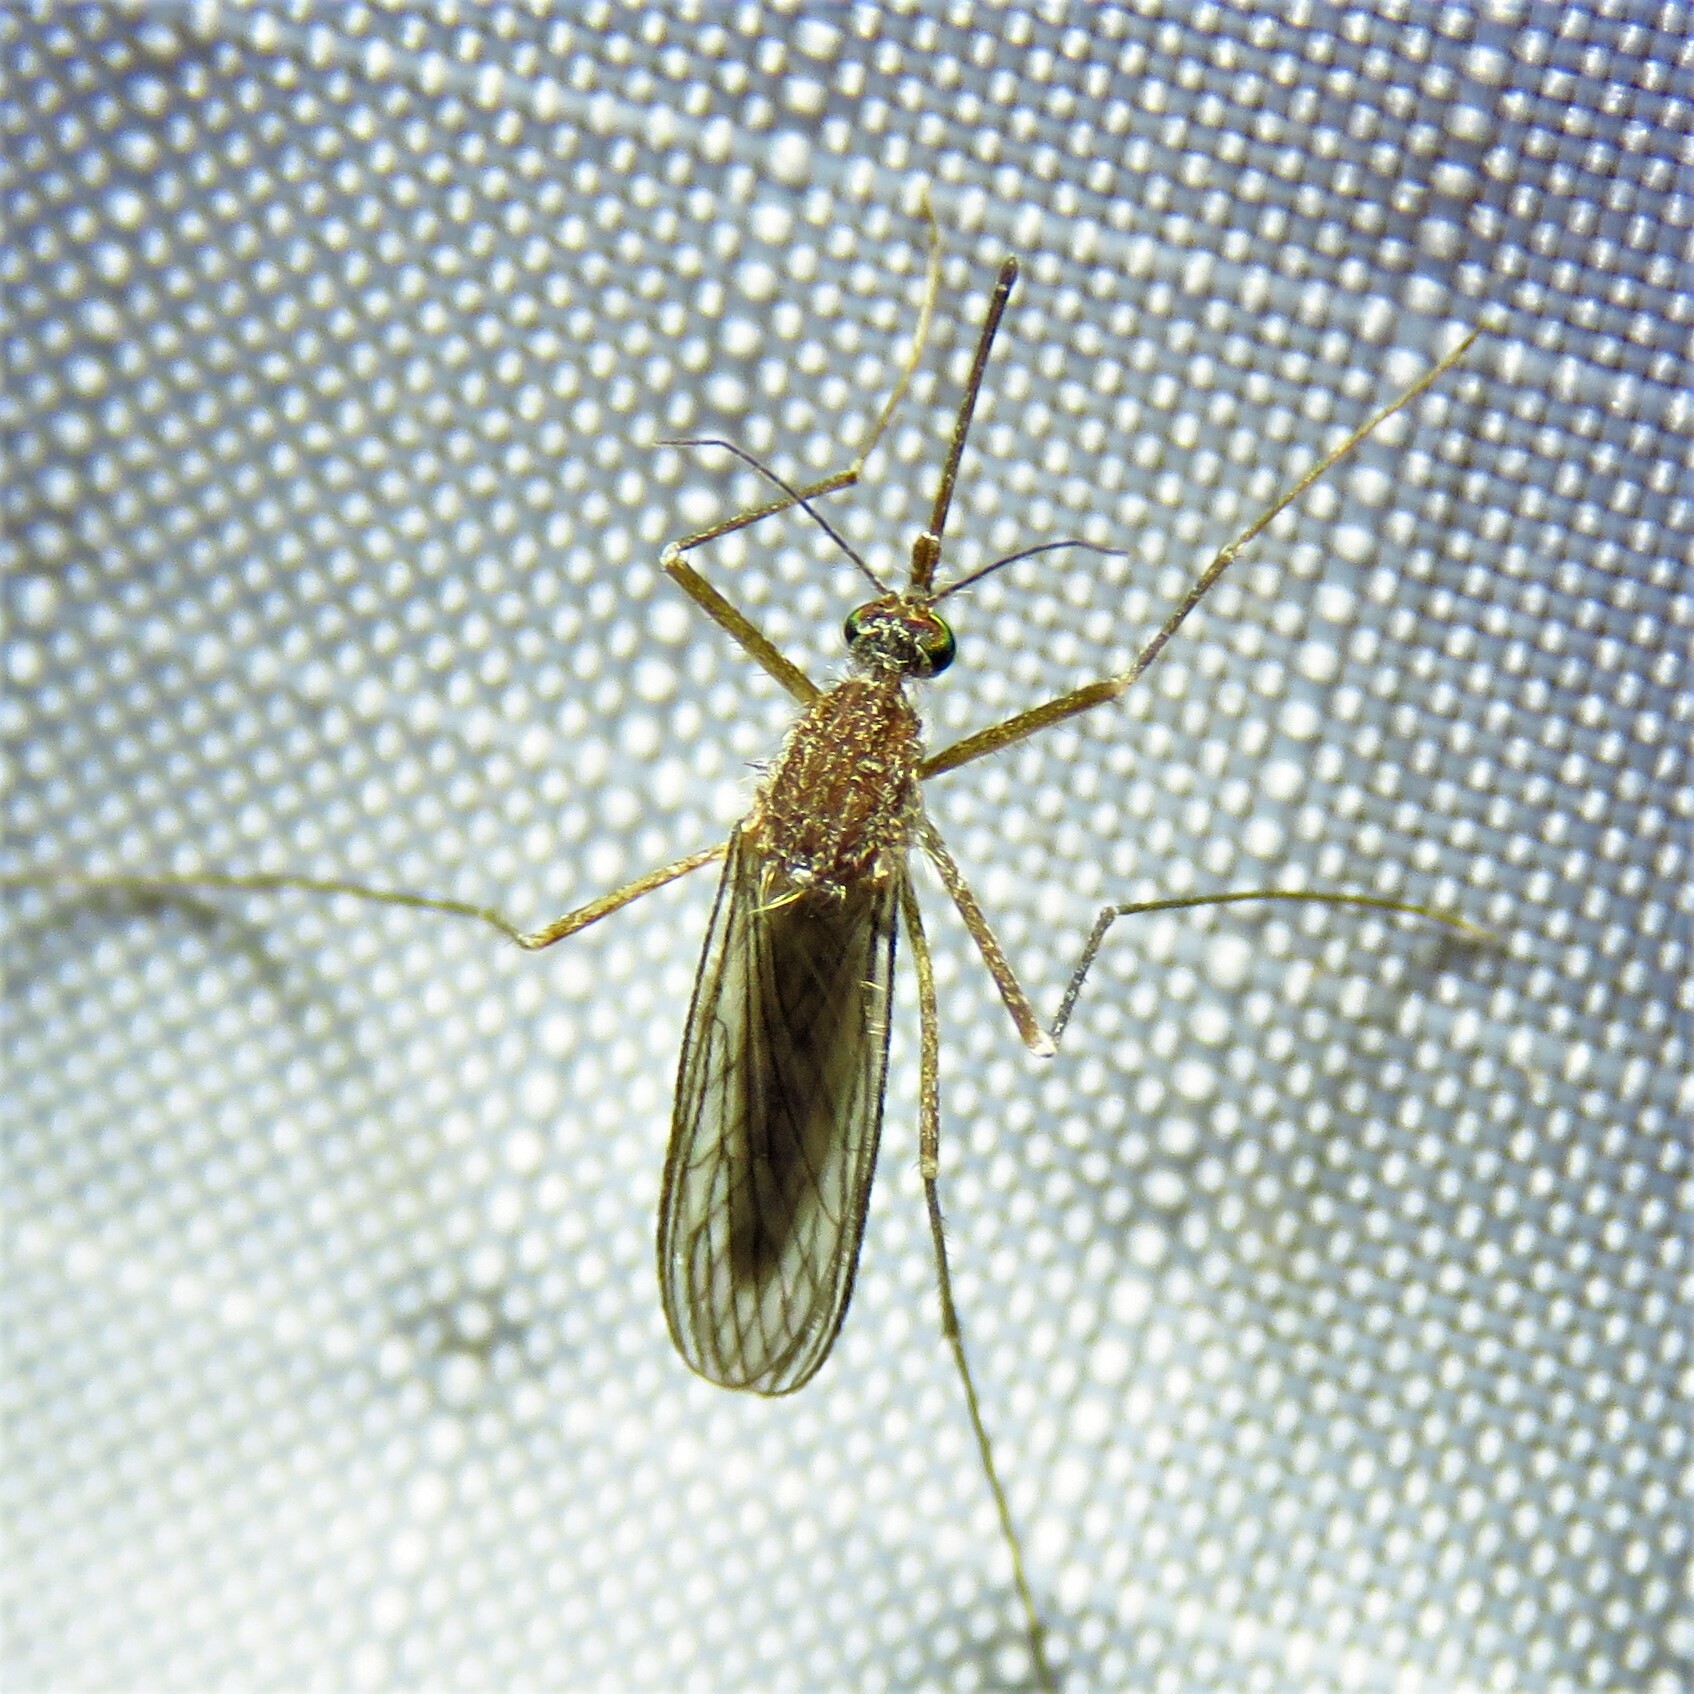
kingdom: Animalia
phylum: Arthropoda
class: Insecta
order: Diptera
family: Culicidae
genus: Culiseta
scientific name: Culiseta inornata
